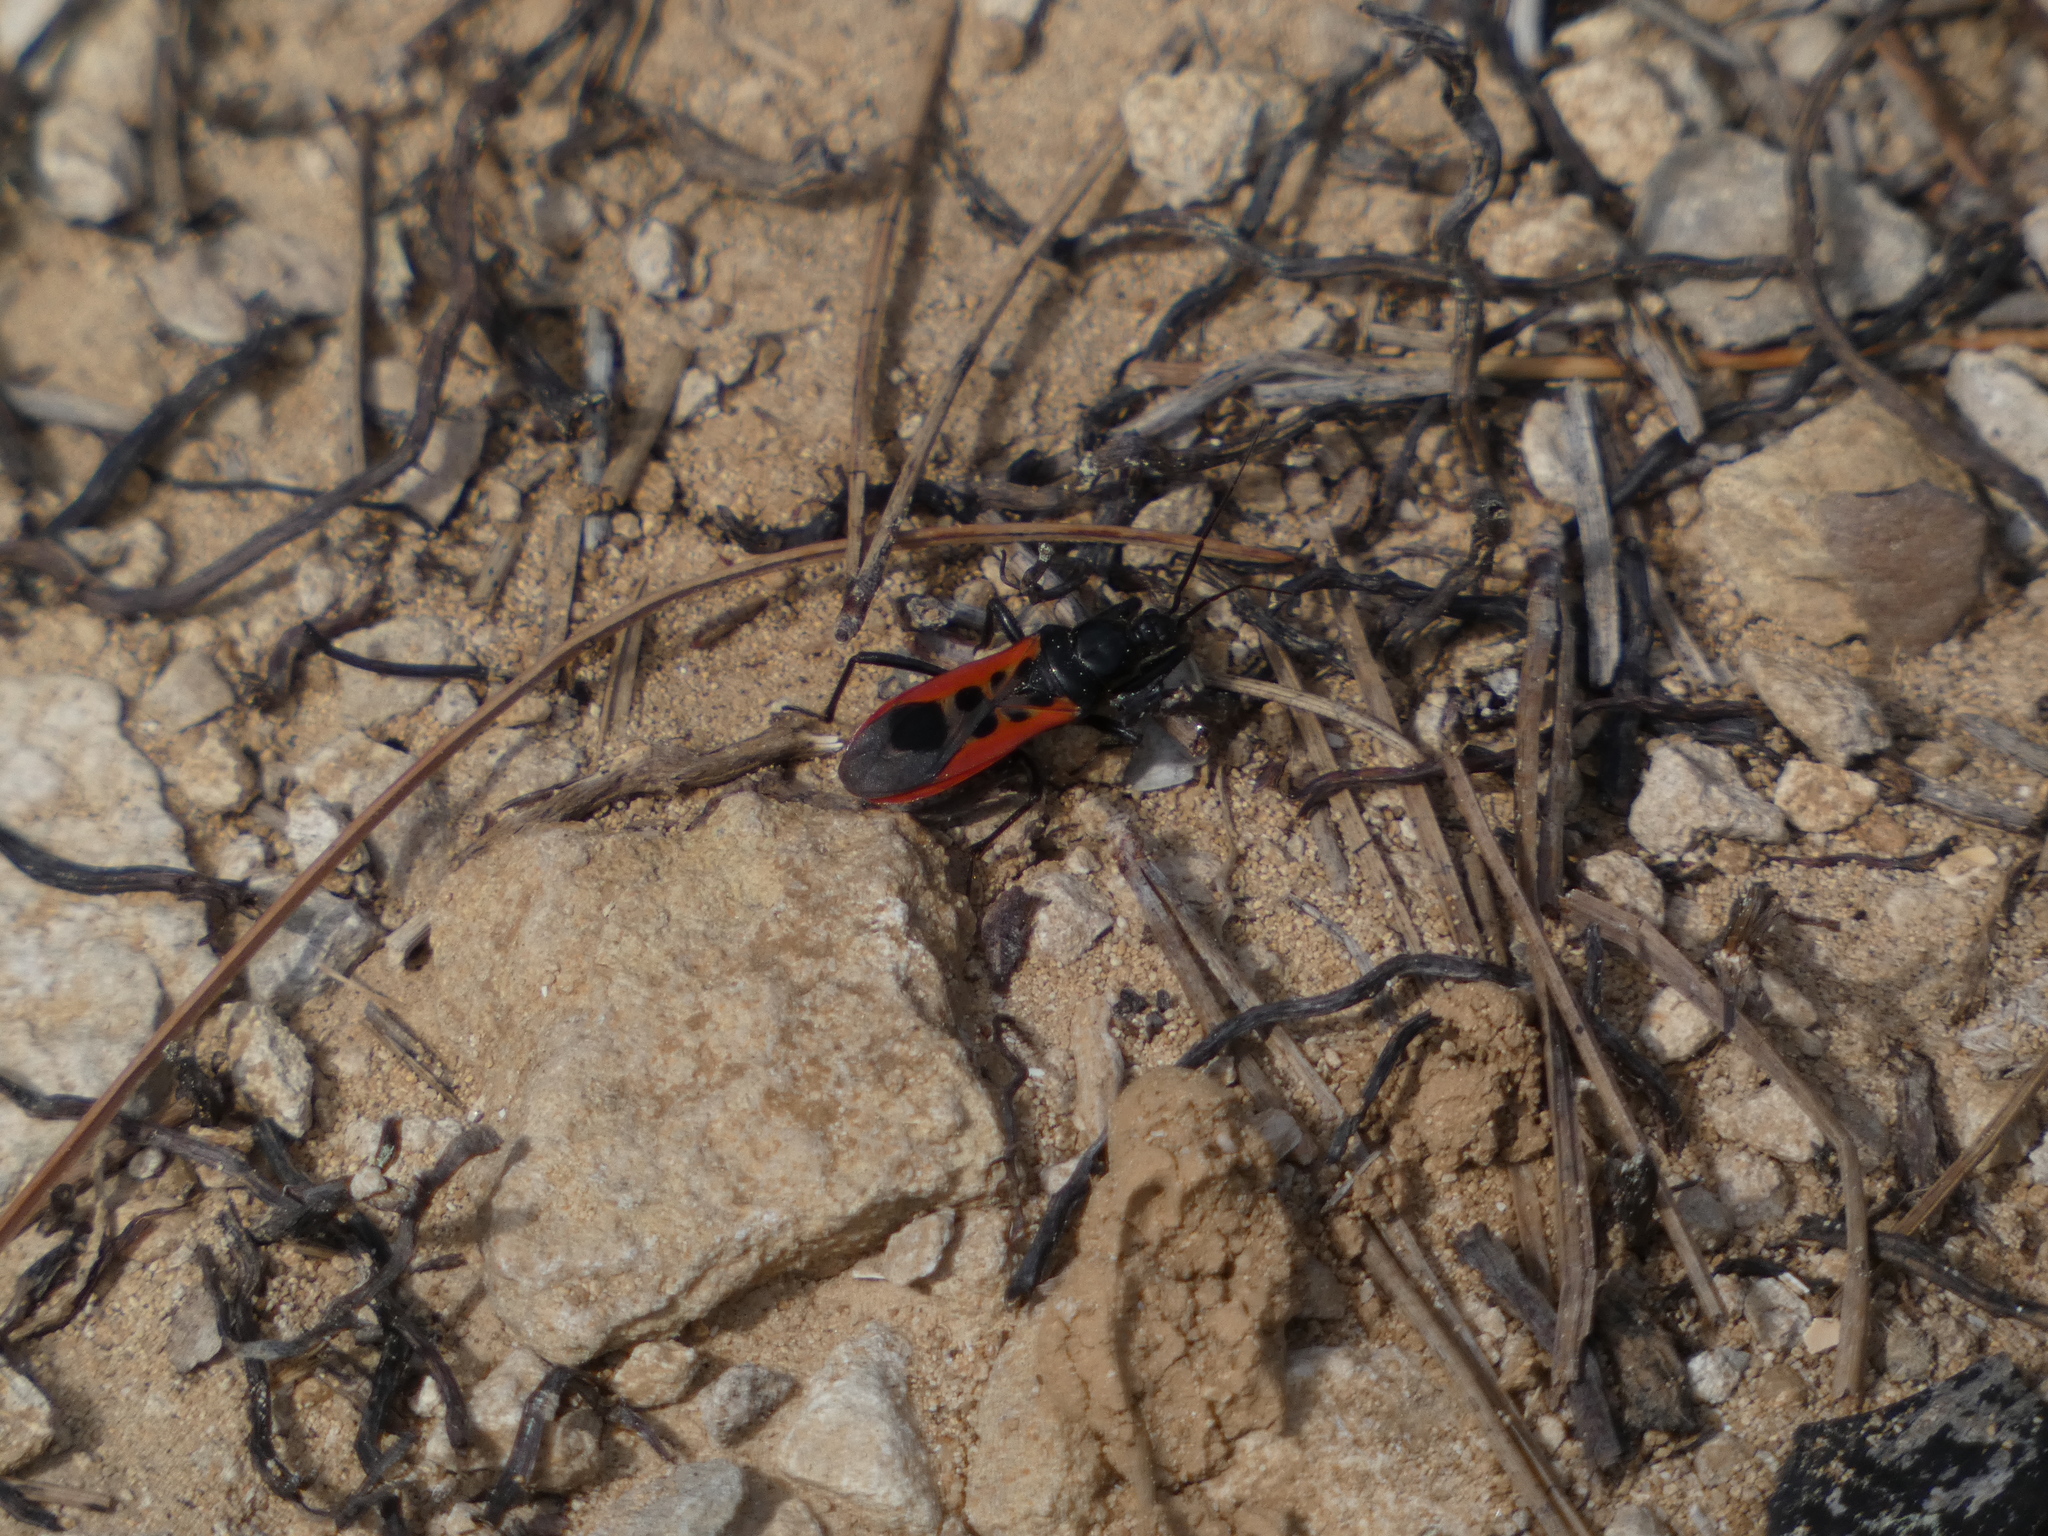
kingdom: Animalia
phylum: Arthropoda
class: Insecta
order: Hemiptera
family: Reduviidae
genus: Peirates
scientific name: Peirates stridulus
